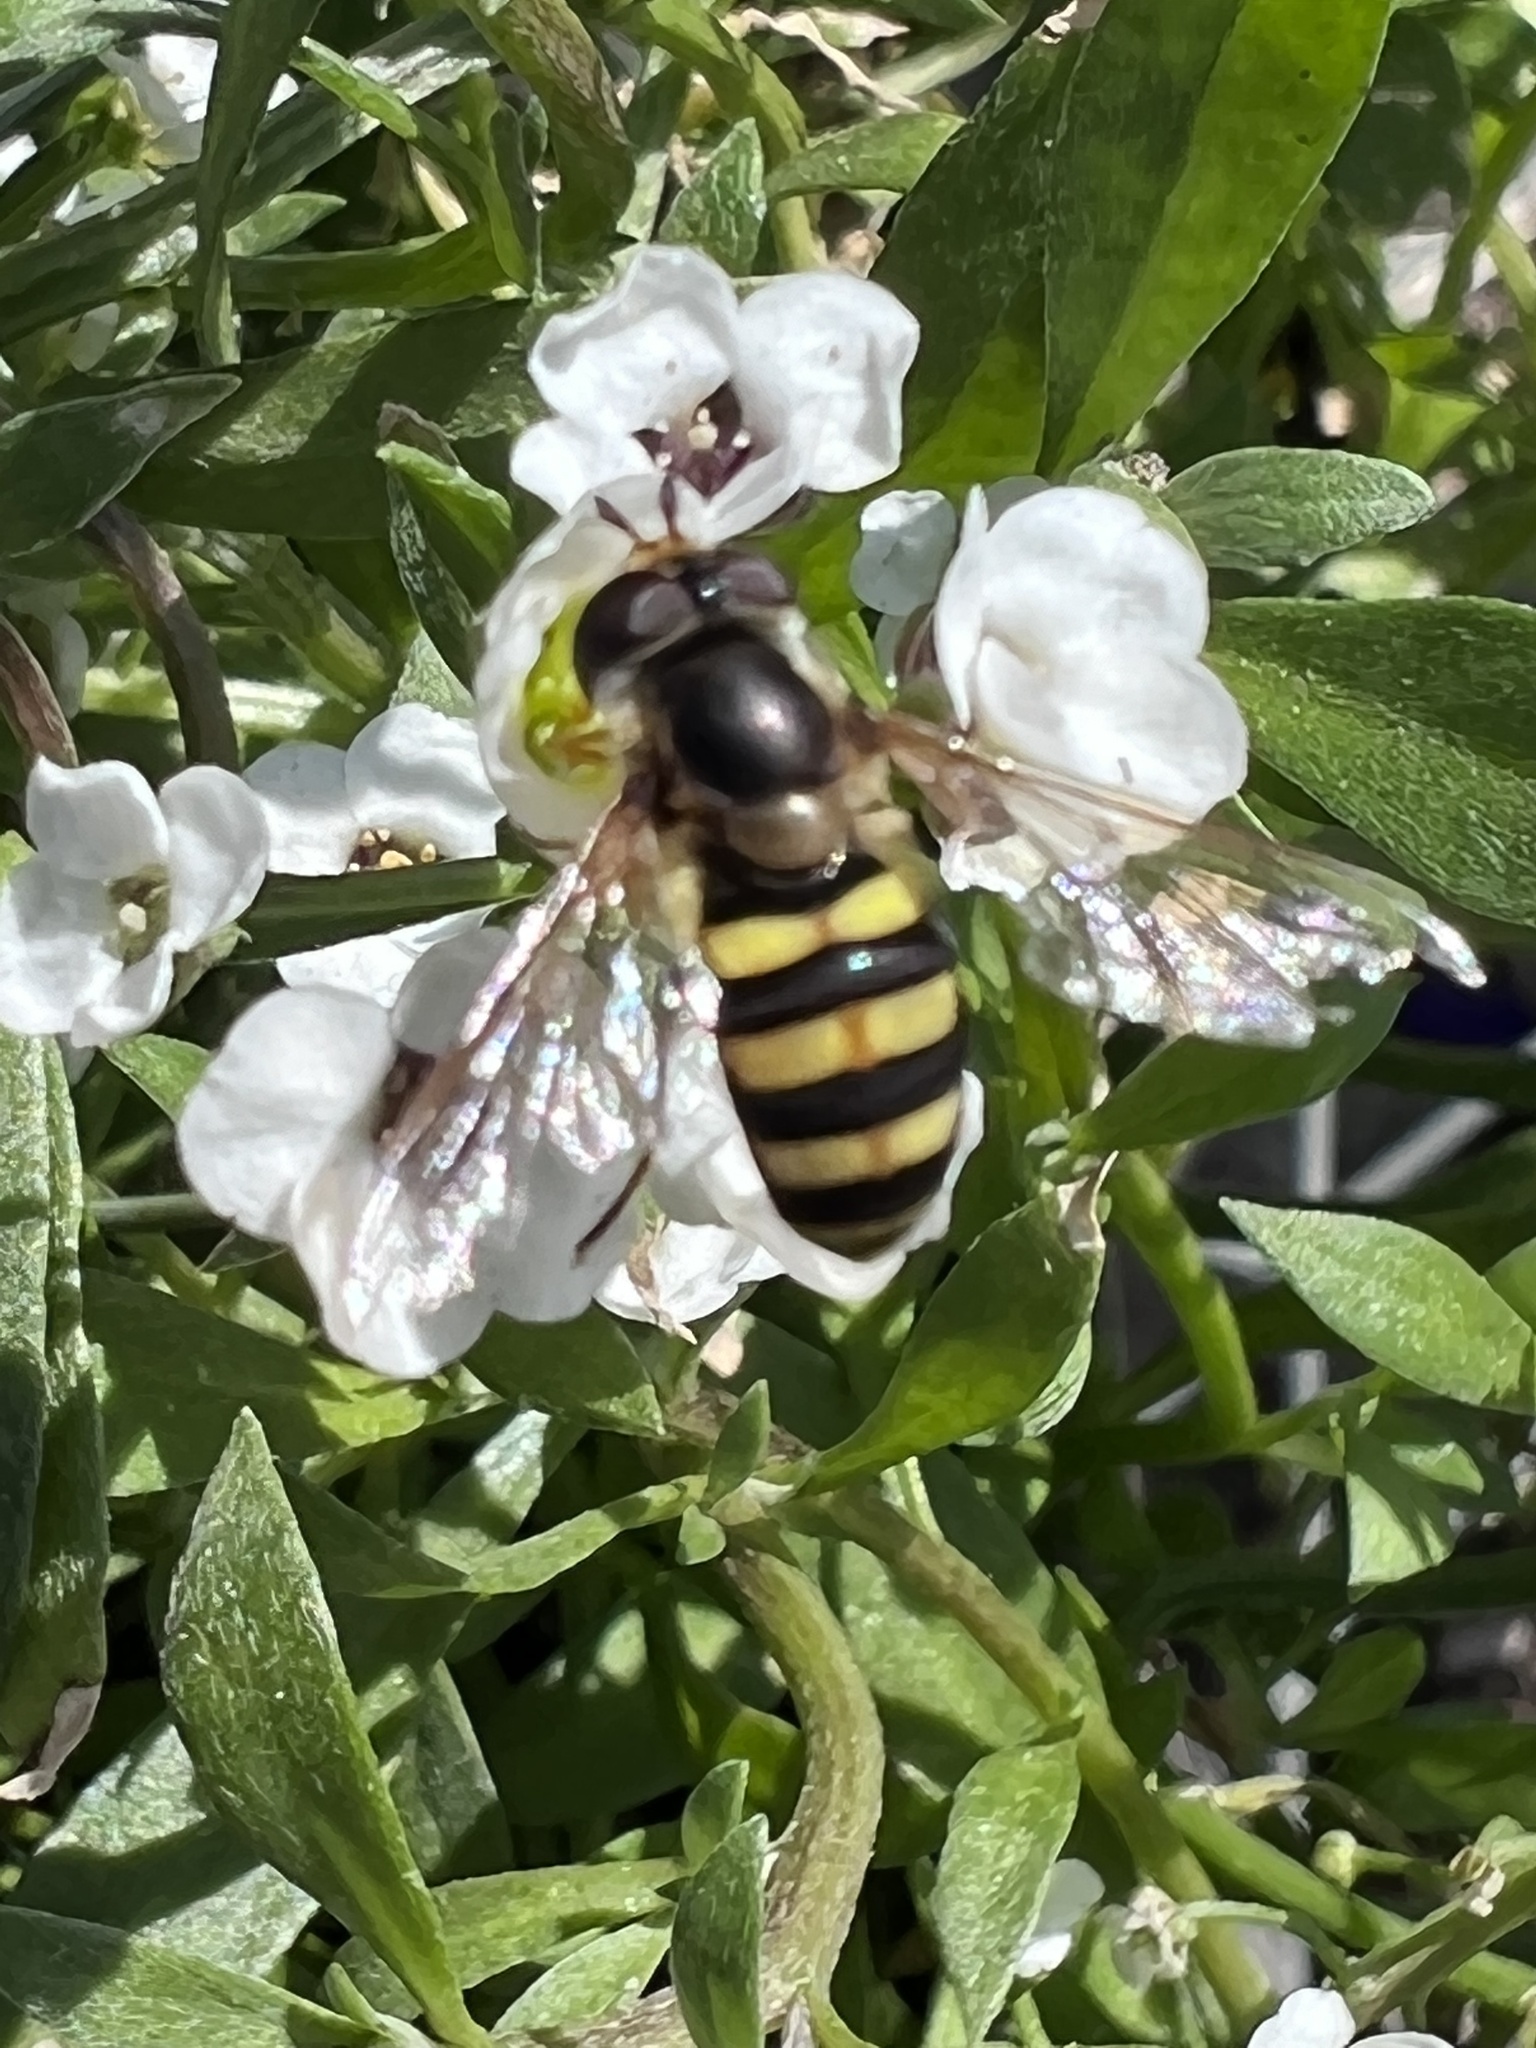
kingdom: Animalia
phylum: Arthropoda
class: Insecta
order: Diptera
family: Syrphidae
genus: Eupeodes
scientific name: Eupeodes
